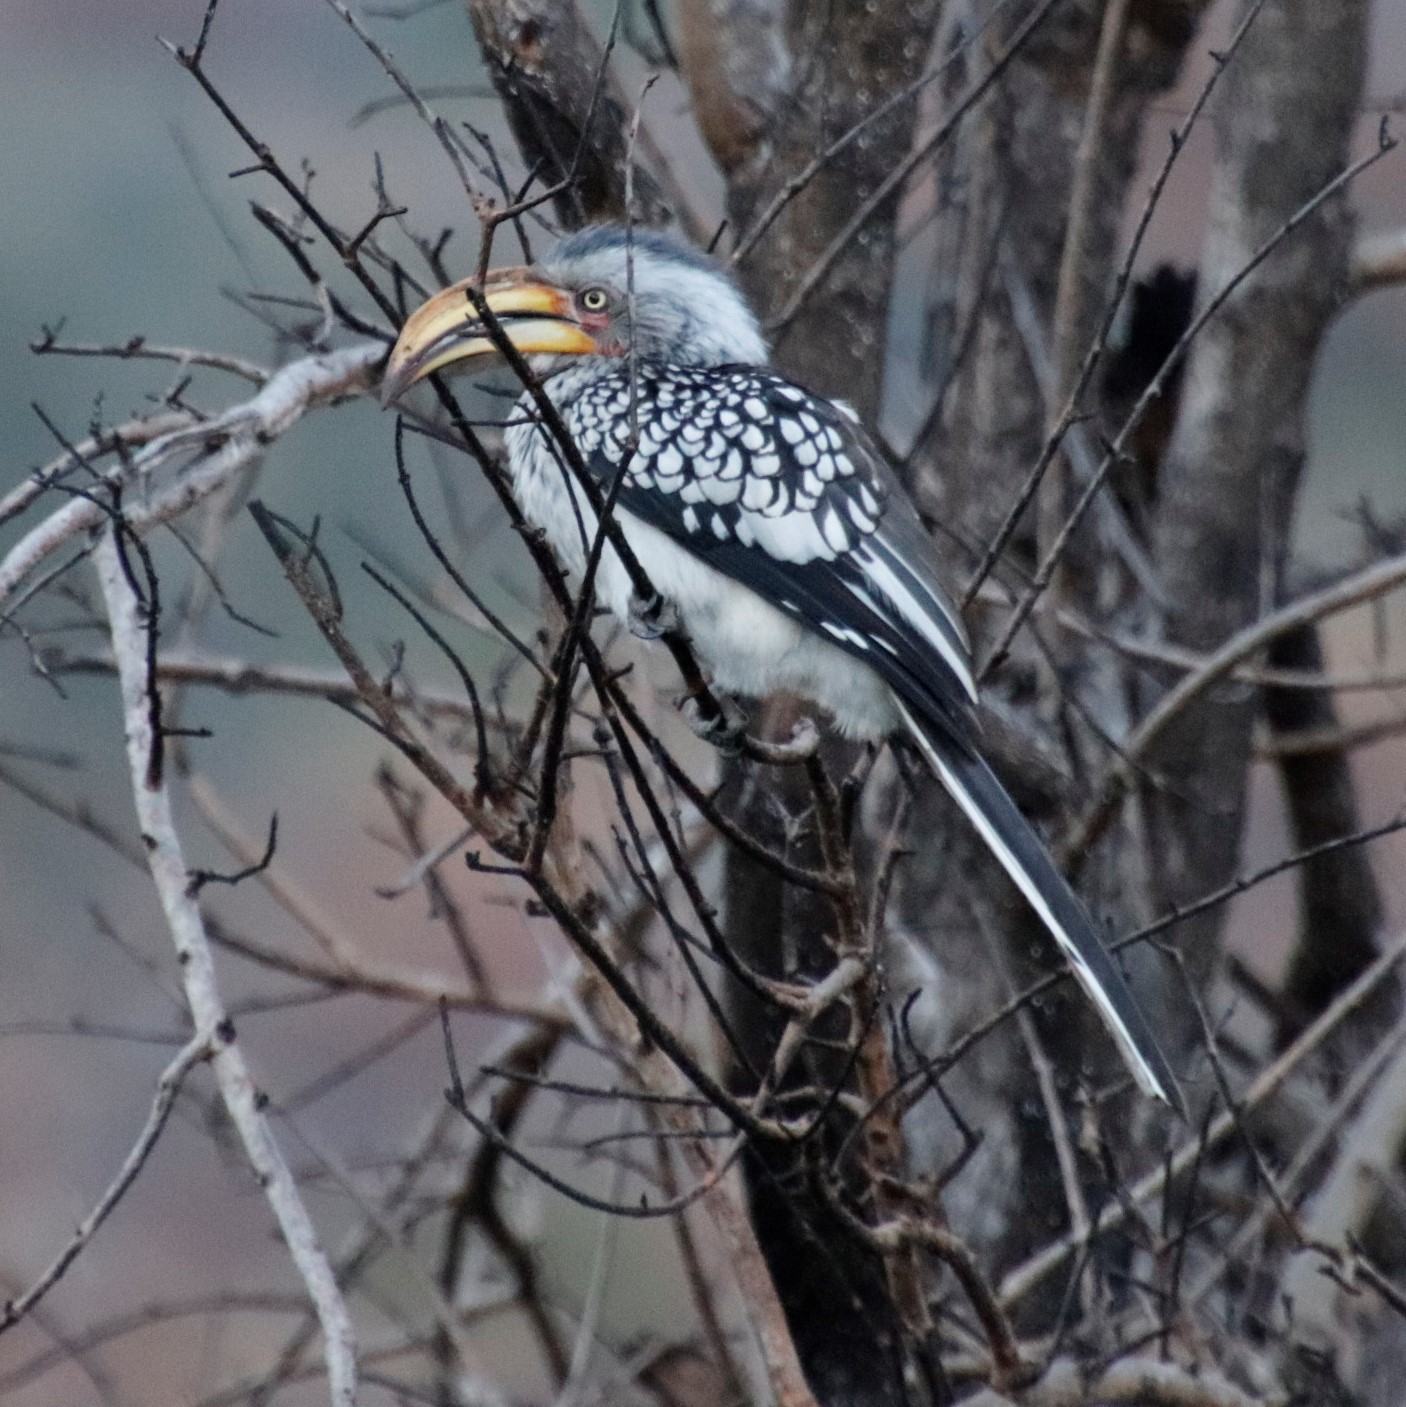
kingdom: Animalia
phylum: Chordata
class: Aves
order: Bucerotiformes
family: Bucerotidae
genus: Tockus
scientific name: Tockus leucomelas
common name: Southern yellow-billed hornbill
